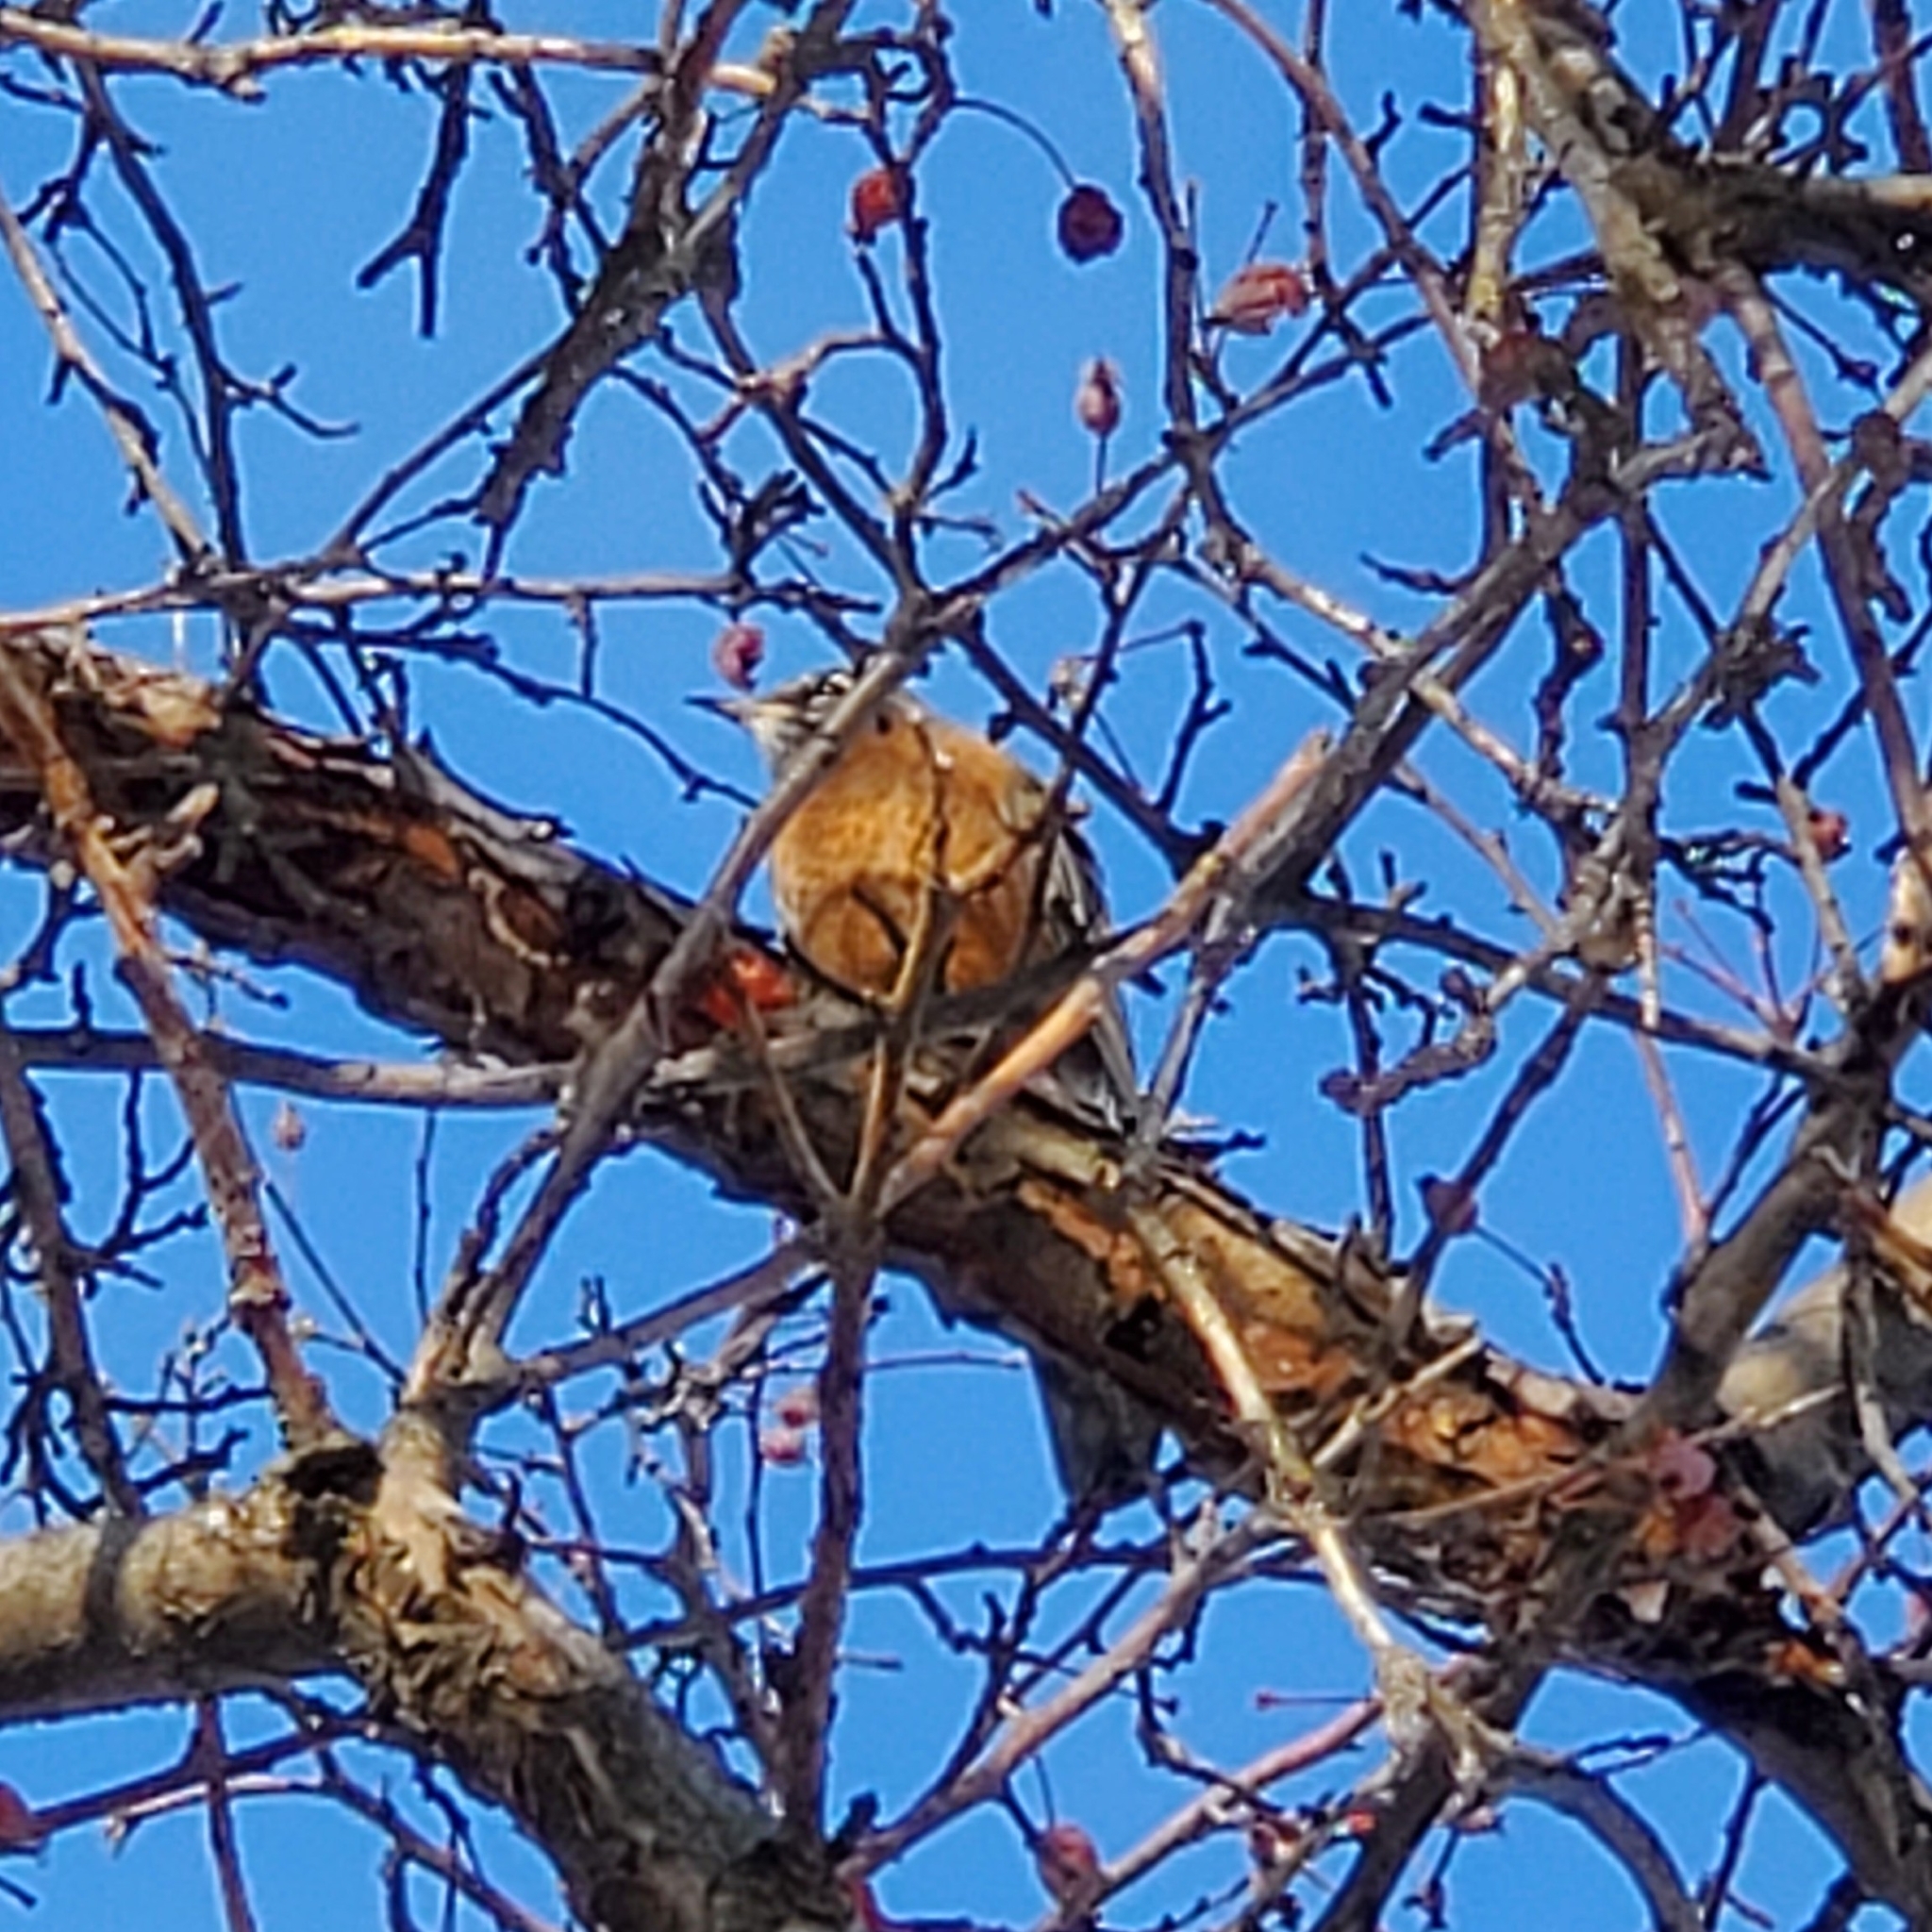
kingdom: Animalia
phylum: Chordata
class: Aves
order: Passeriformes
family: Turdidae
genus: Turdus
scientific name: Turdus migratorius
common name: American robin
